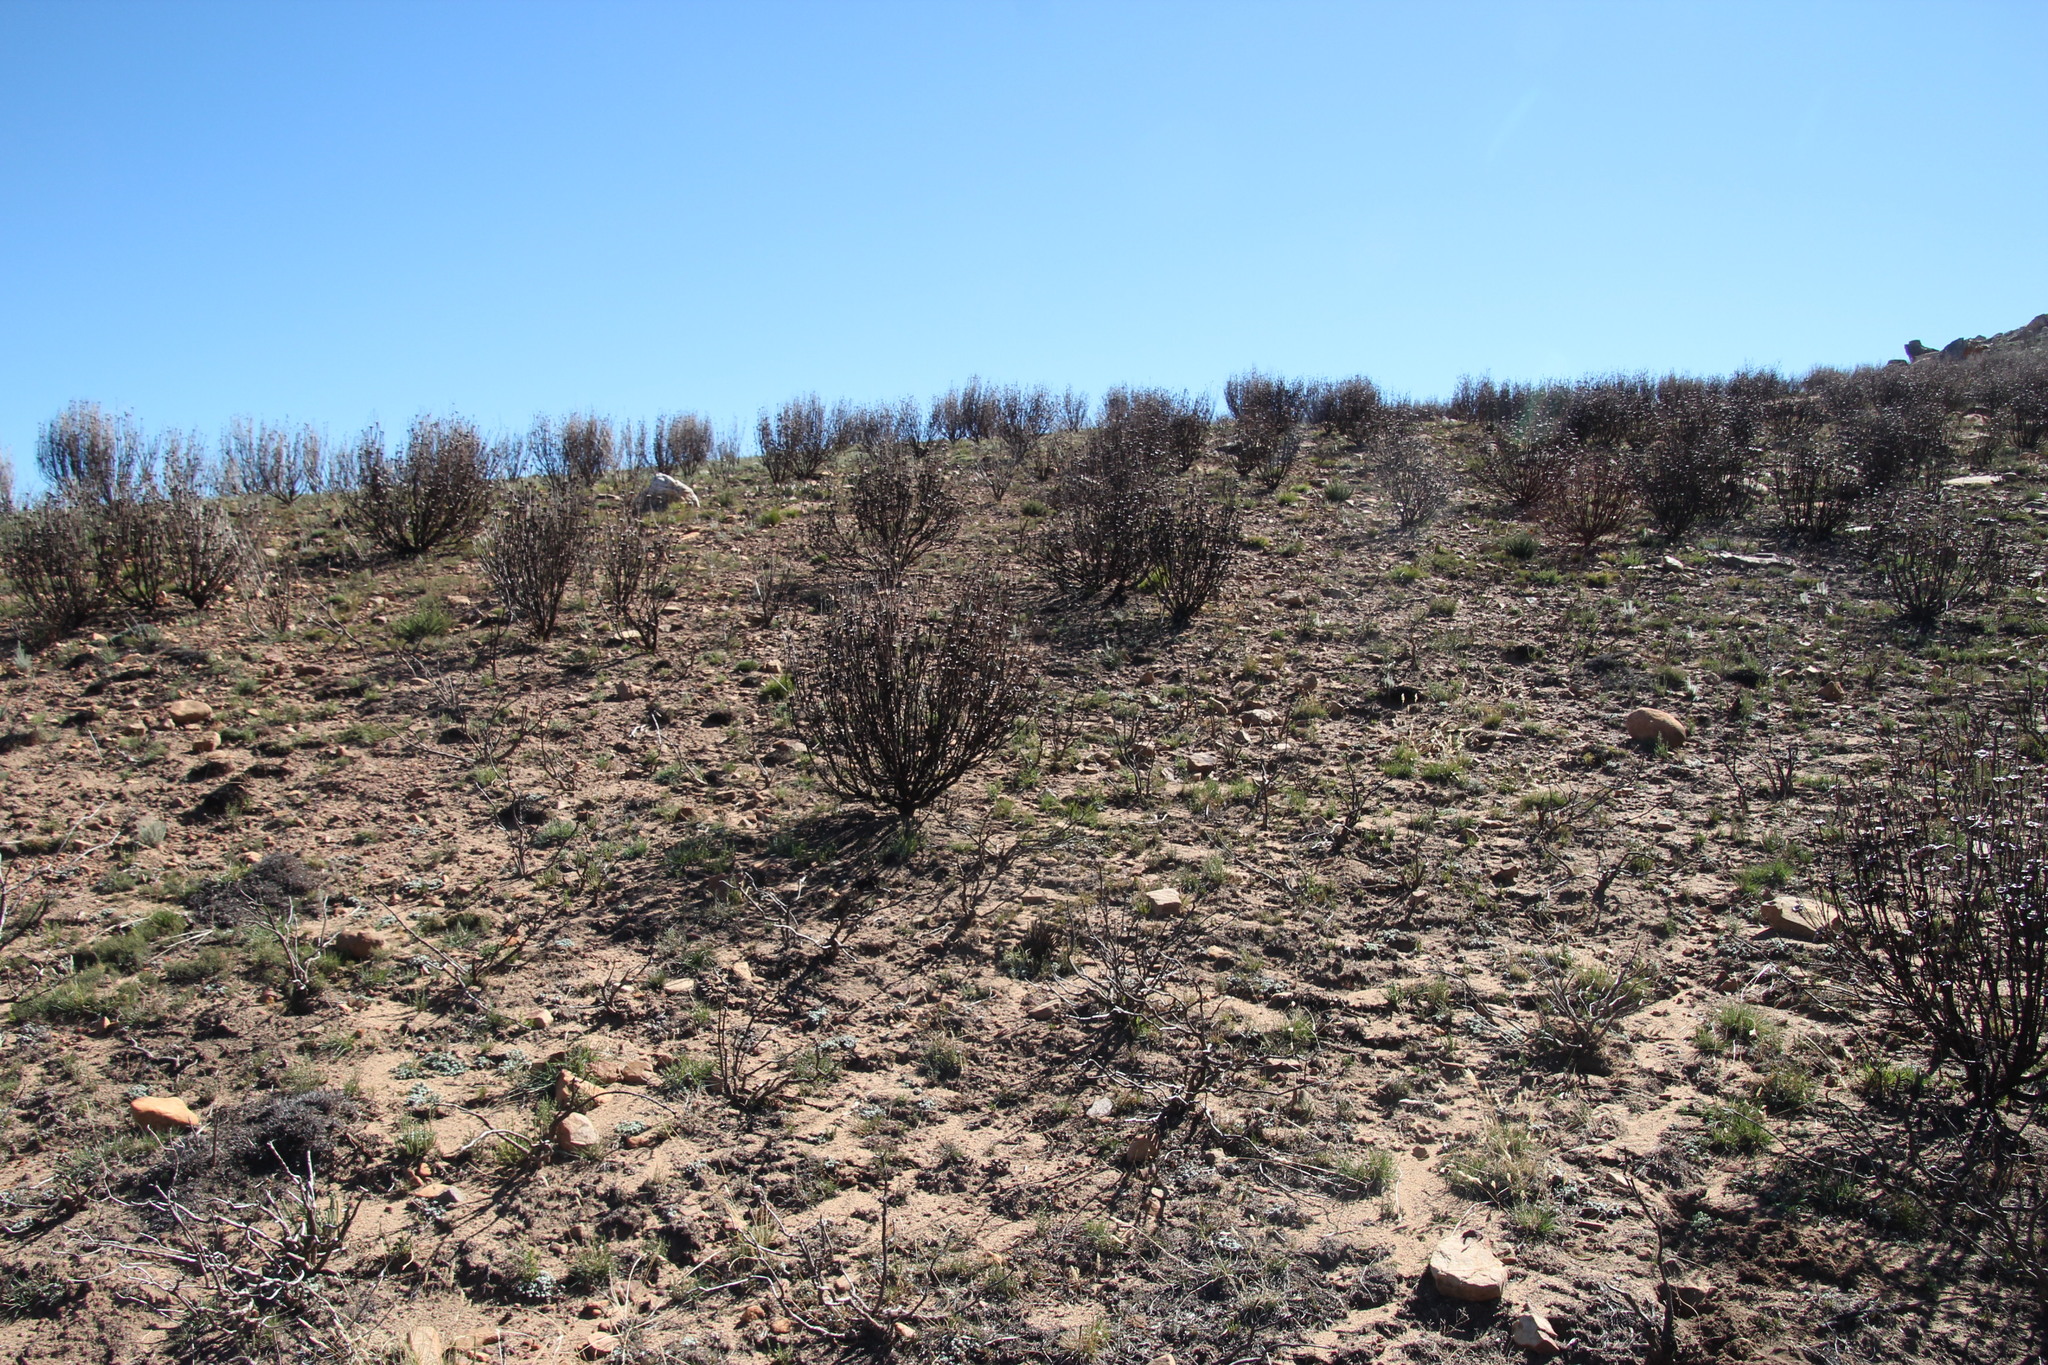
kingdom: Plantae
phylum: Tracheophyta
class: Magnoliopsida
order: Proteales
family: Proteaceae
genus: Protea
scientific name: Protea acuminata
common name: Black-rim sugarbush
